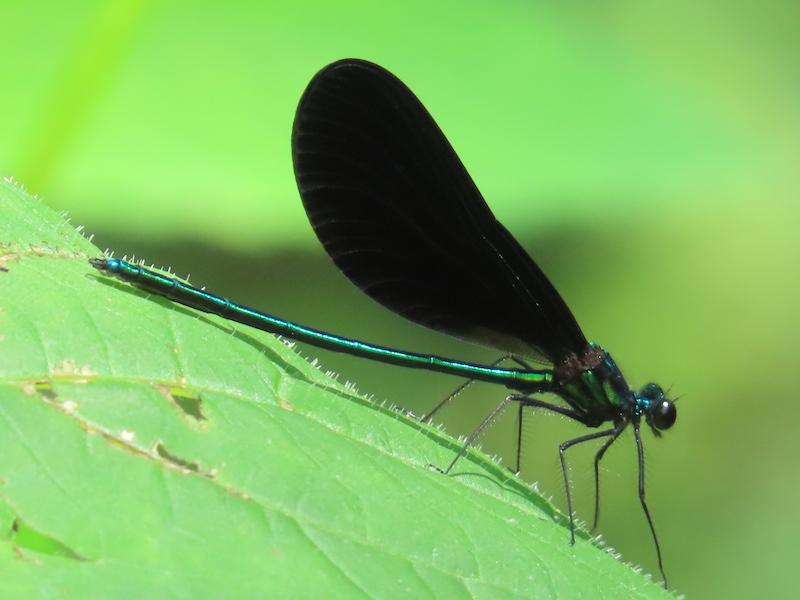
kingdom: Animalia
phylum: Arthropoda
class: Insecta
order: Odonata
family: Calopterygidae
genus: Calopteryx
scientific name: Calopteryx maculata
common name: Ebony jewelwing
